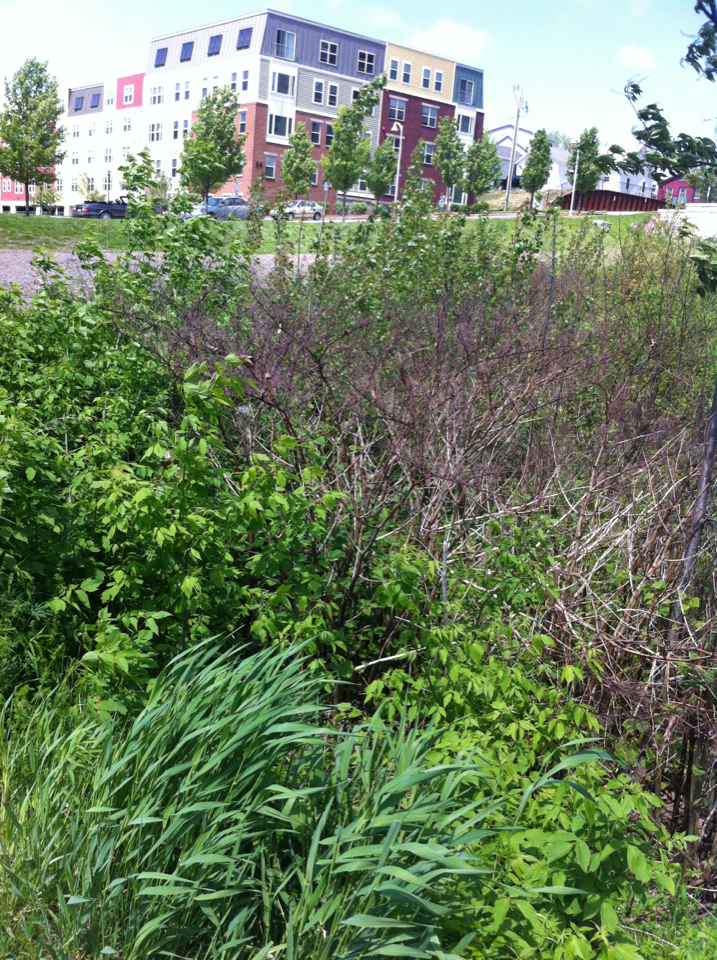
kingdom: Plantae
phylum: Tracheophyta
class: Magnoliopsida
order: Caryophyllales
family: Polygonaceae
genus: Reynoutria
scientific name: Reynoutria japonica
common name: Japanese knotweed
